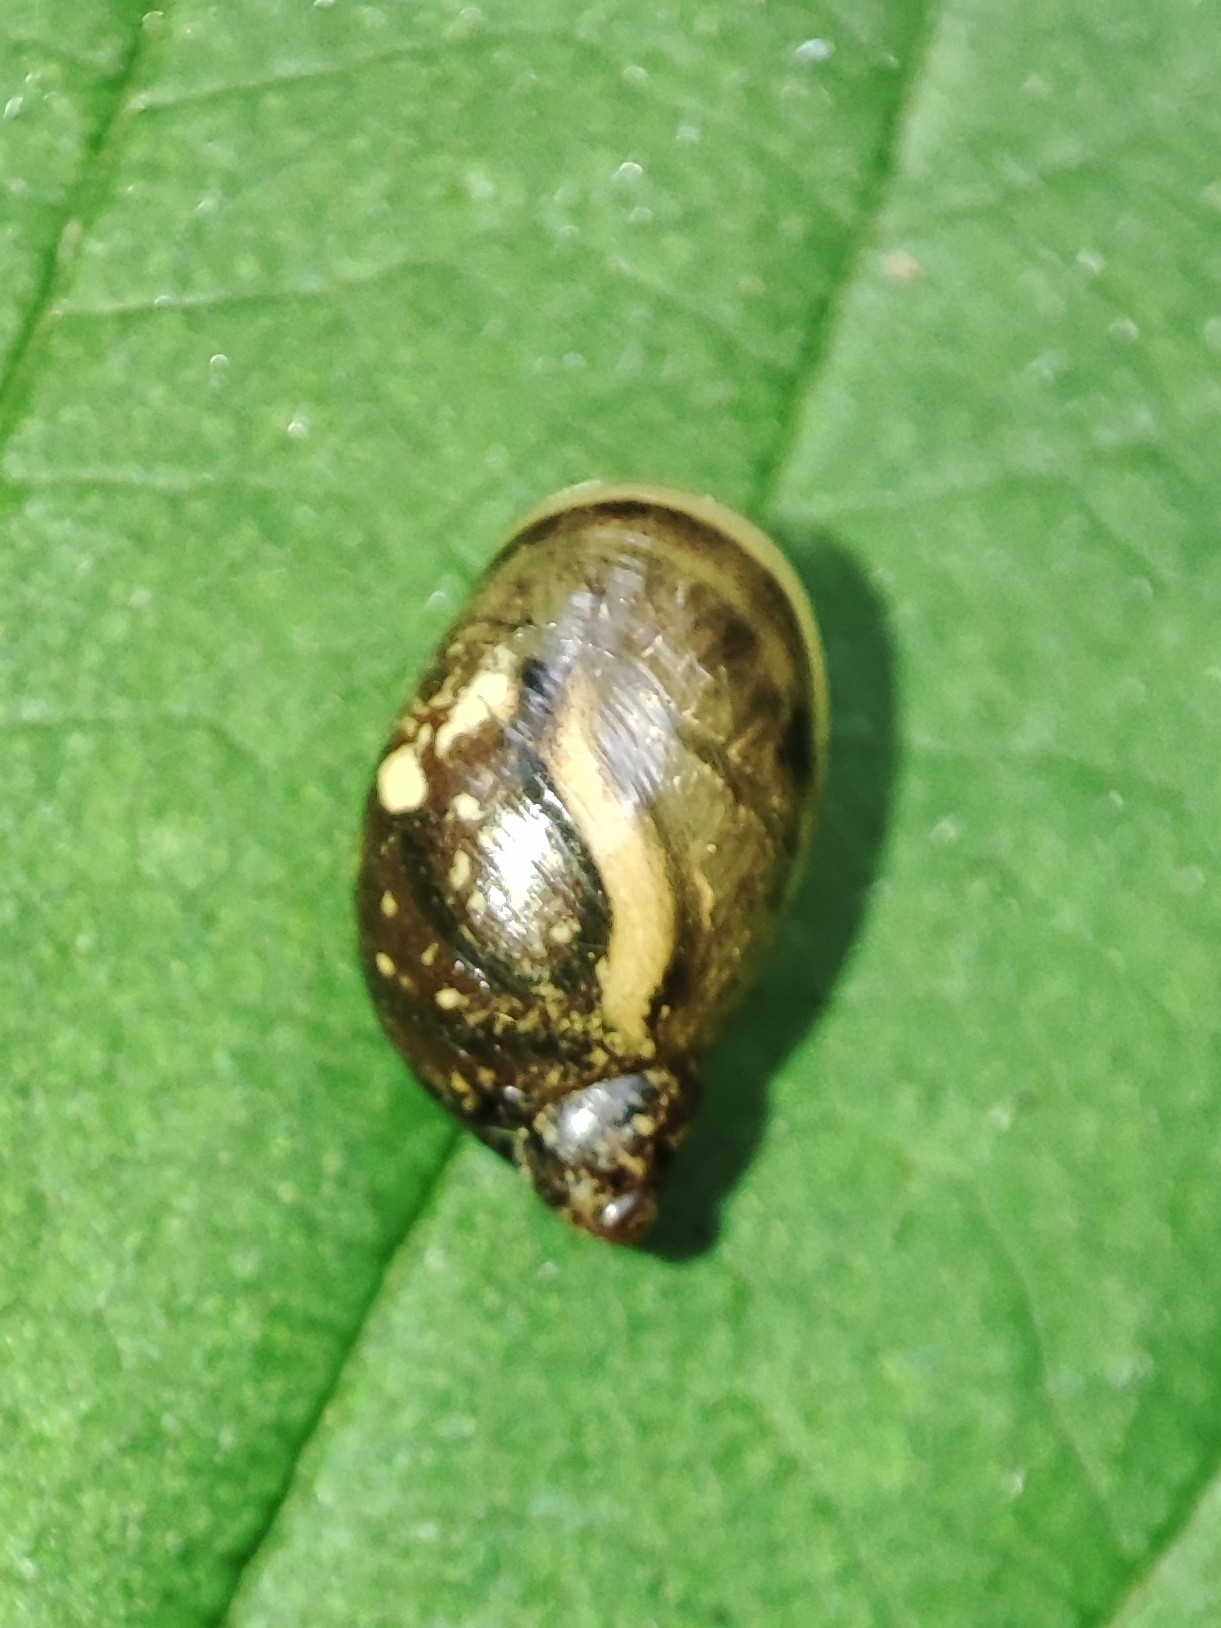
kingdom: Animalia
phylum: Mollusca
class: Gastropoda
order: Stylommatophora
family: Succineidae
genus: Succinea
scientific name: Succinea putris
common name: European ambersnail
